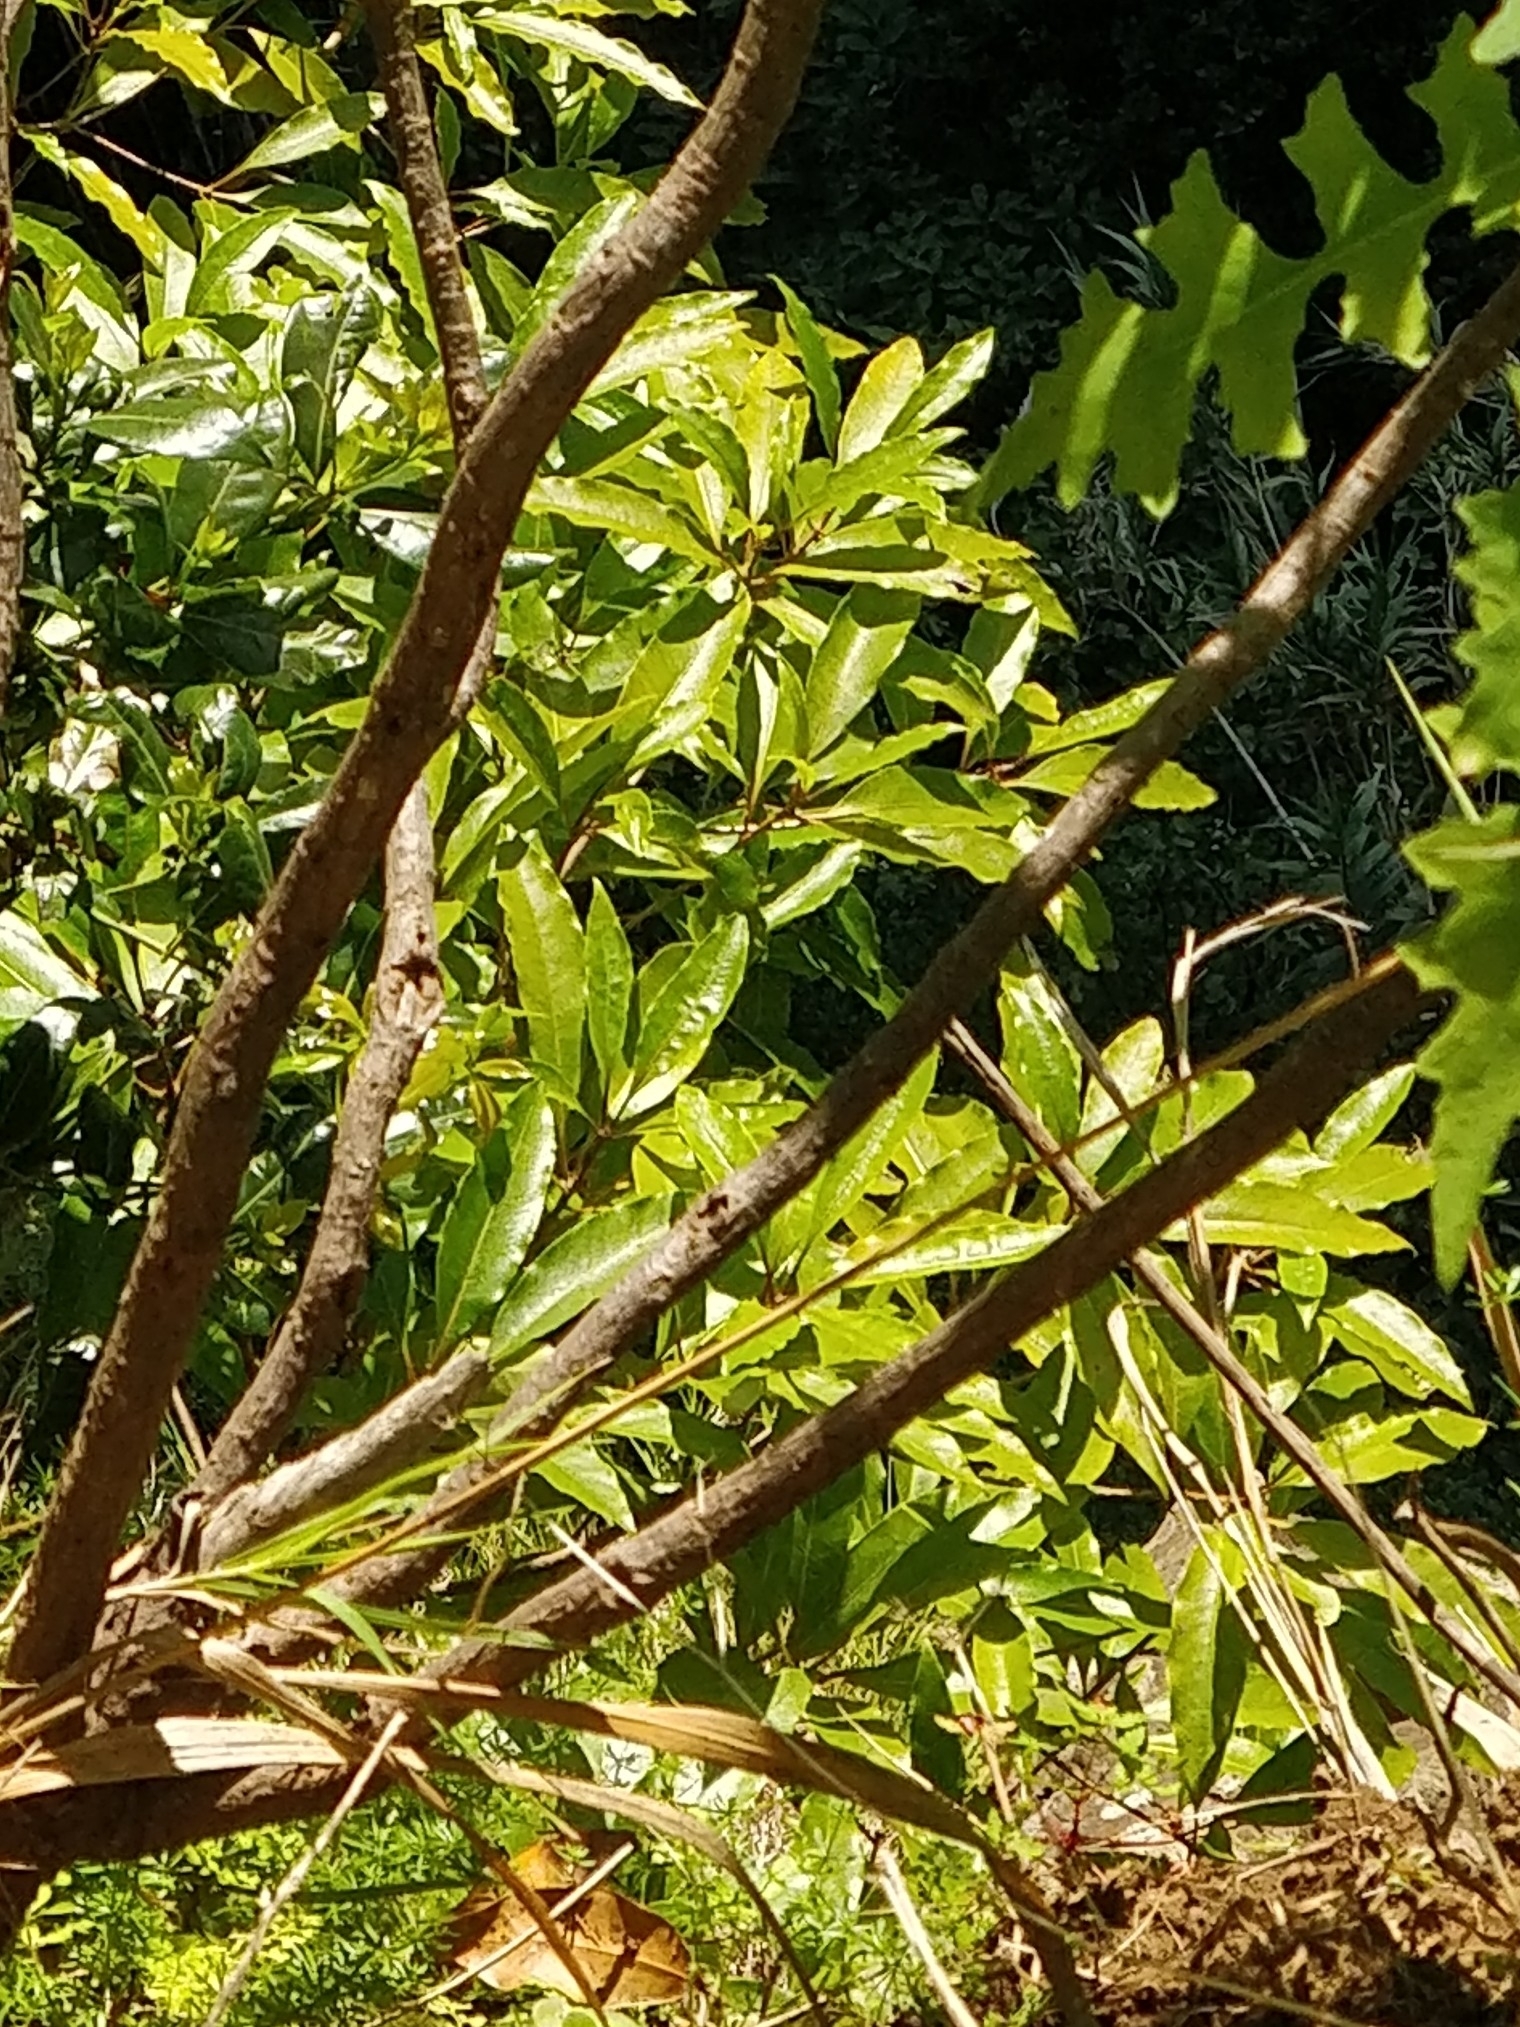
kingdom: Plantae
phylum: Tracheophyta
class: Magnoliopsida
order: Apiales
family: Pittosporaceae
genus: Pittosporum
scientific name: Pittosporum undulatum
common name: Australian cheesewood
